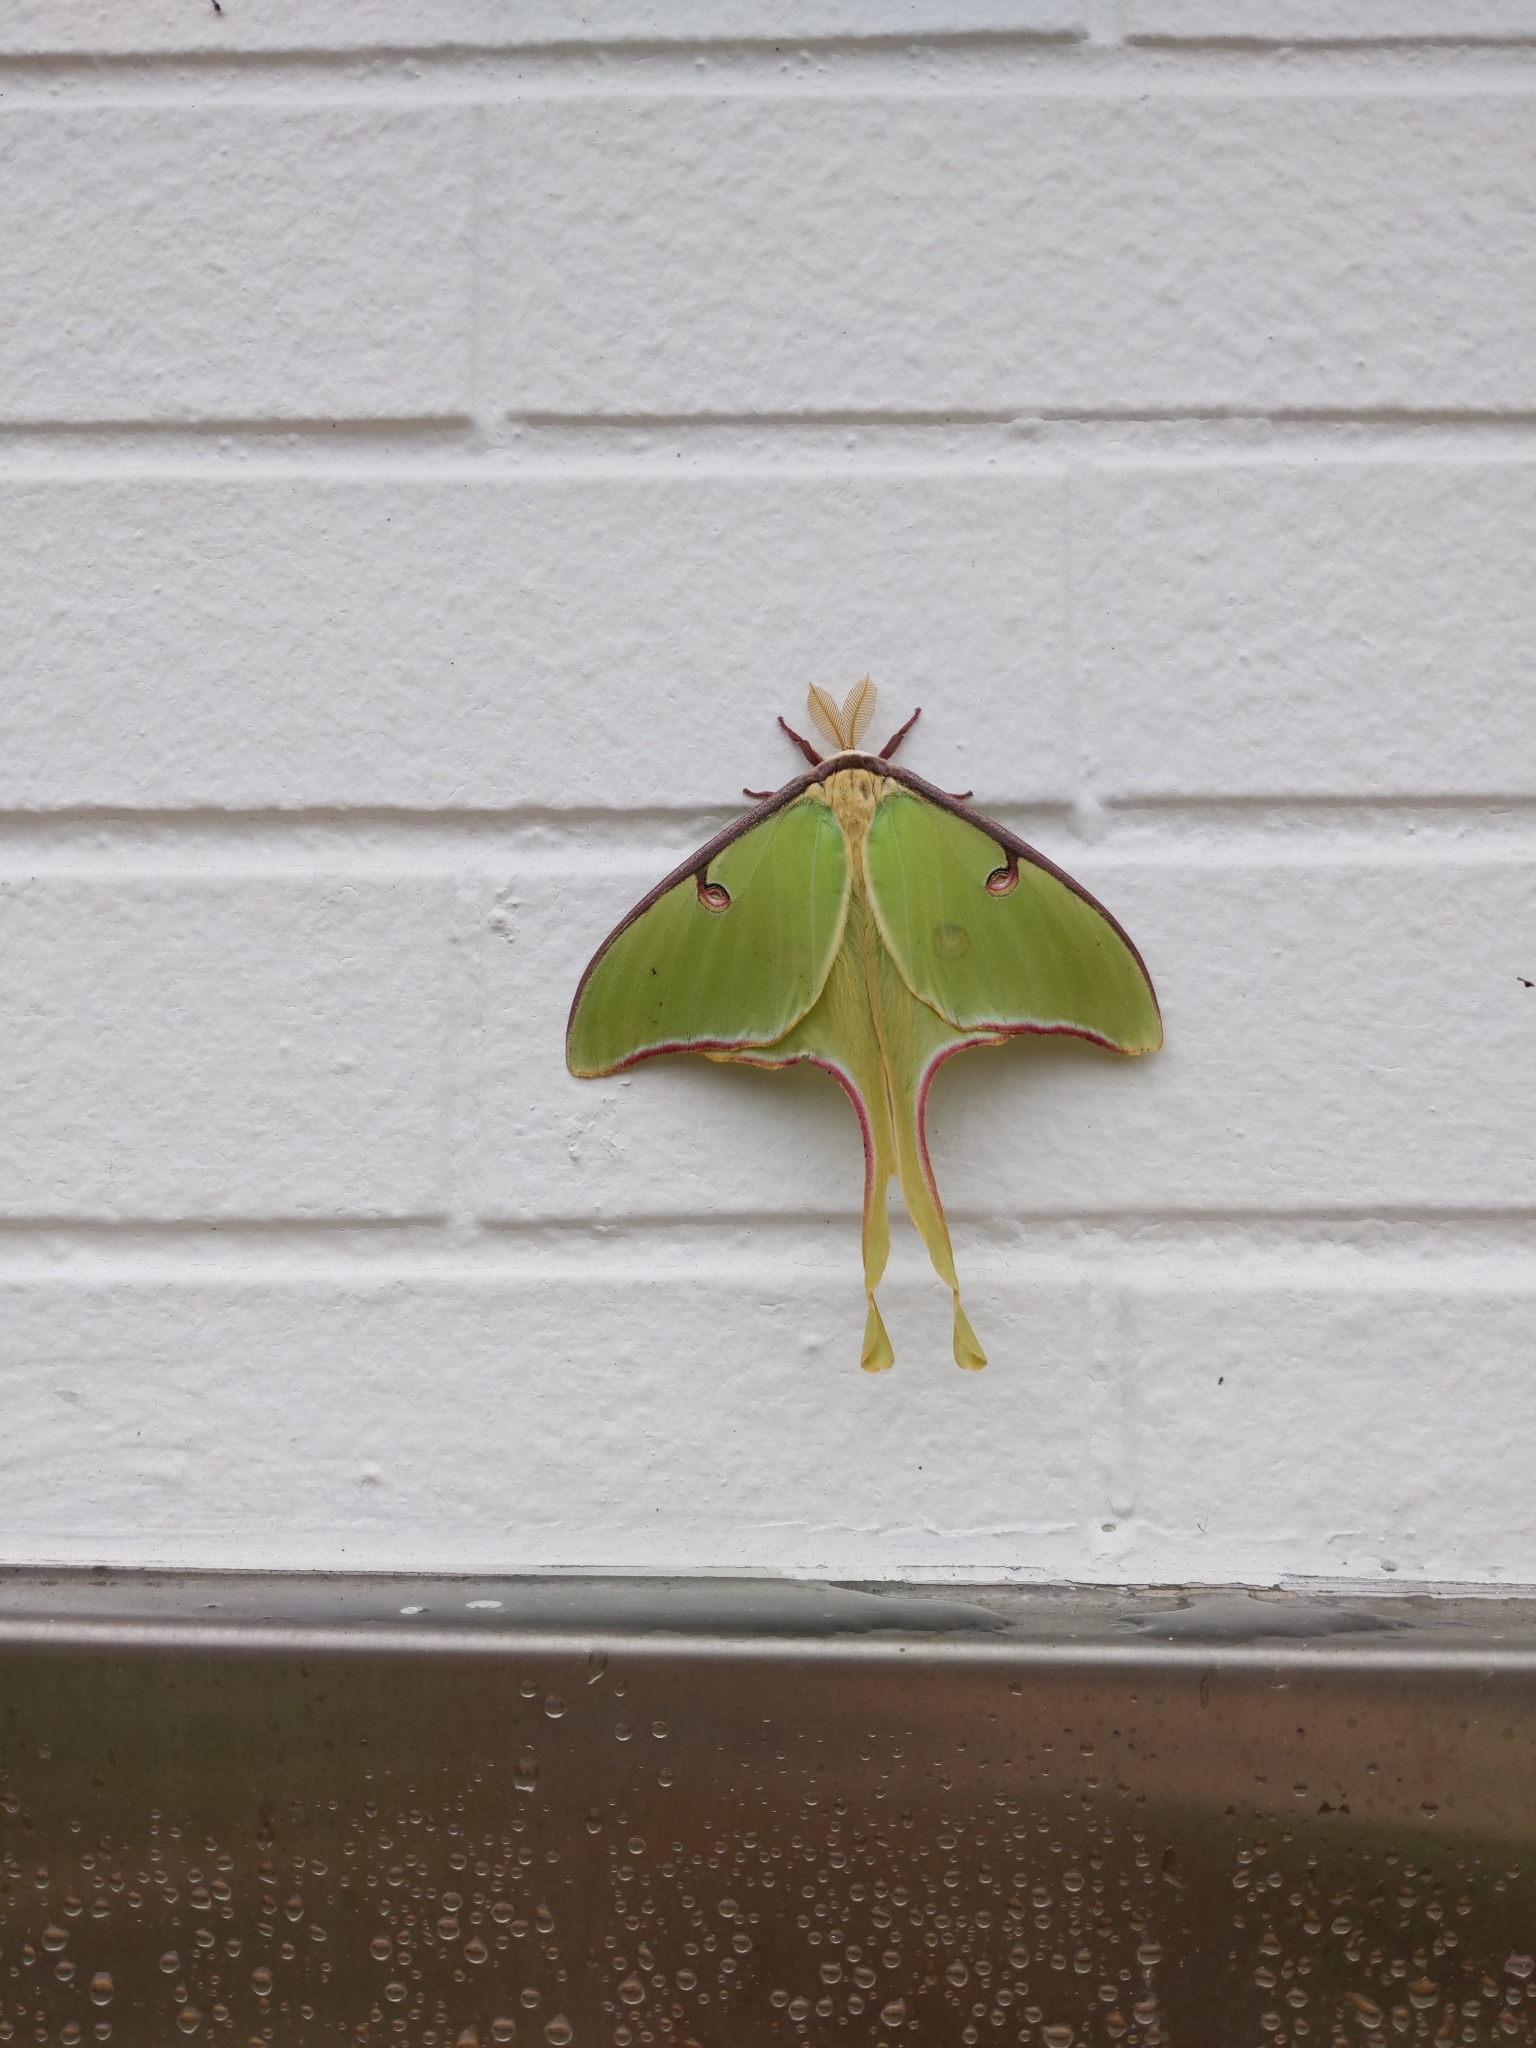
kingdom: Animalia
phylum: Arthropoda
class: Insecta
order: Lepidoptera
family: Saturniidae
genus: Actias
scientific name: Actias luna
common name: Luna moth
